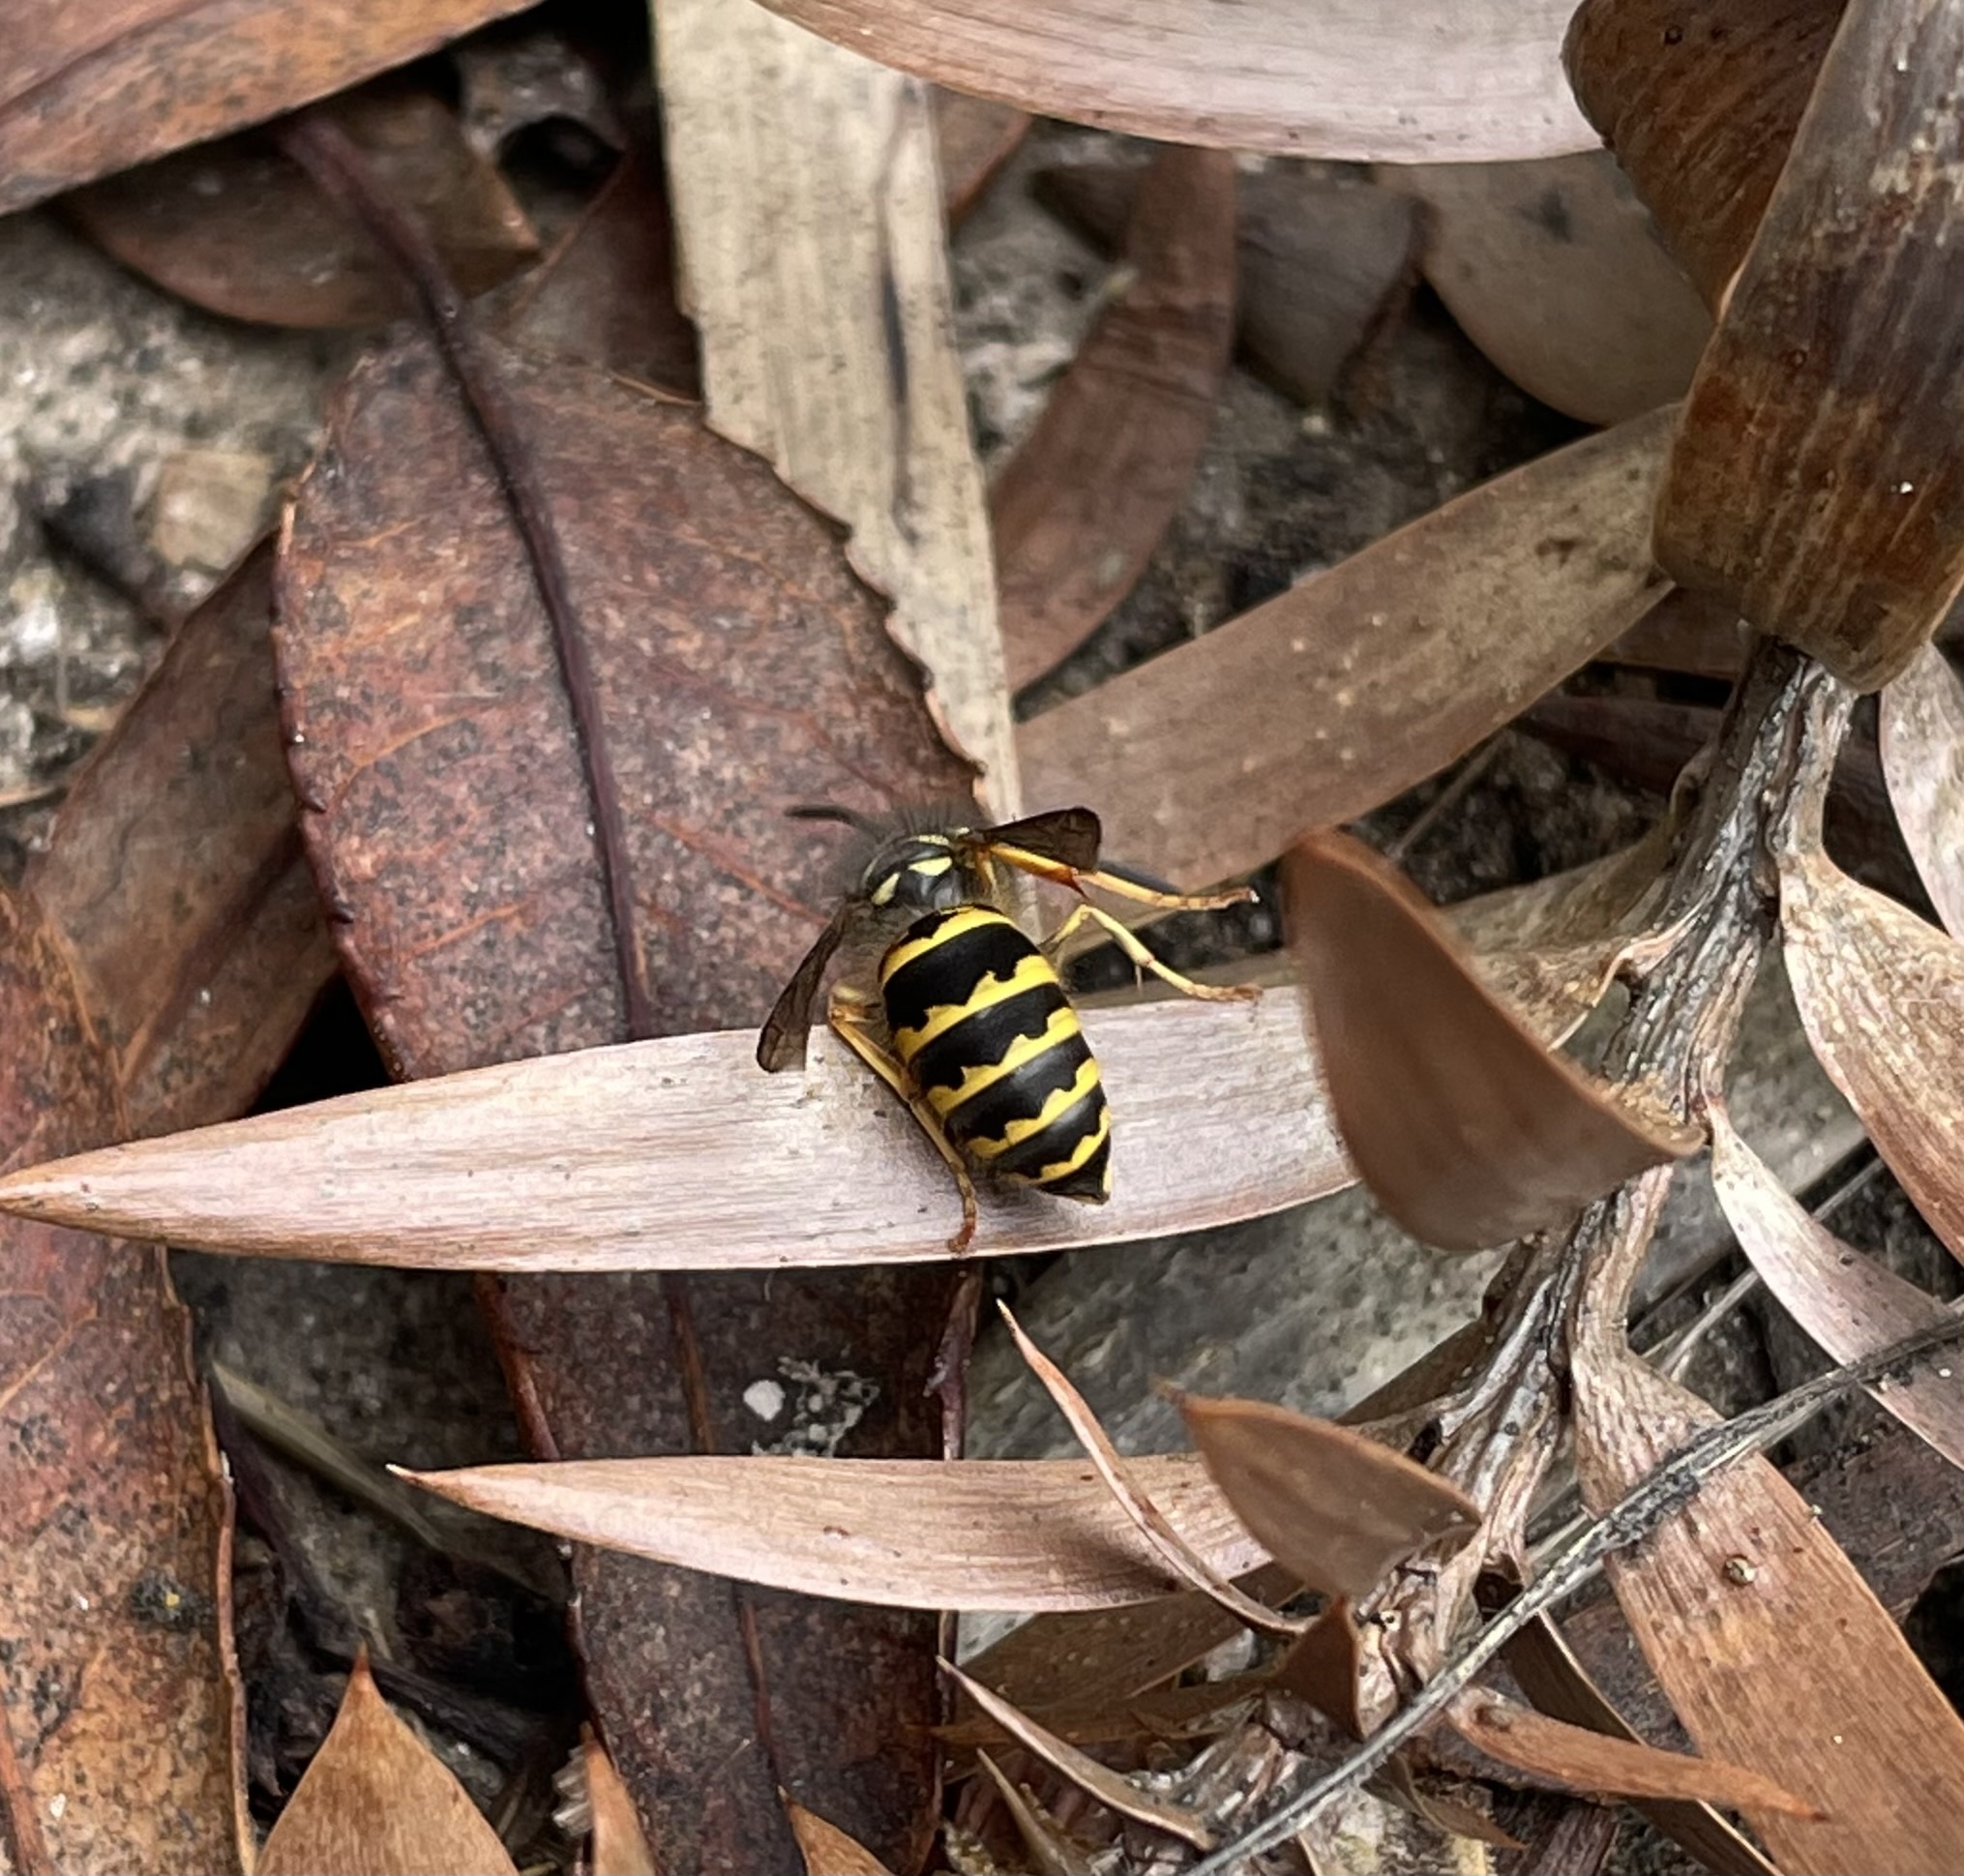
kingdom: Animalia
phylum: Arthropoda
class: Insecta
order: Hymenoptera
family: Vespidae
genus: Vespula
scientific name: Vespula alascensis
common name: Alaska yellowjacket
